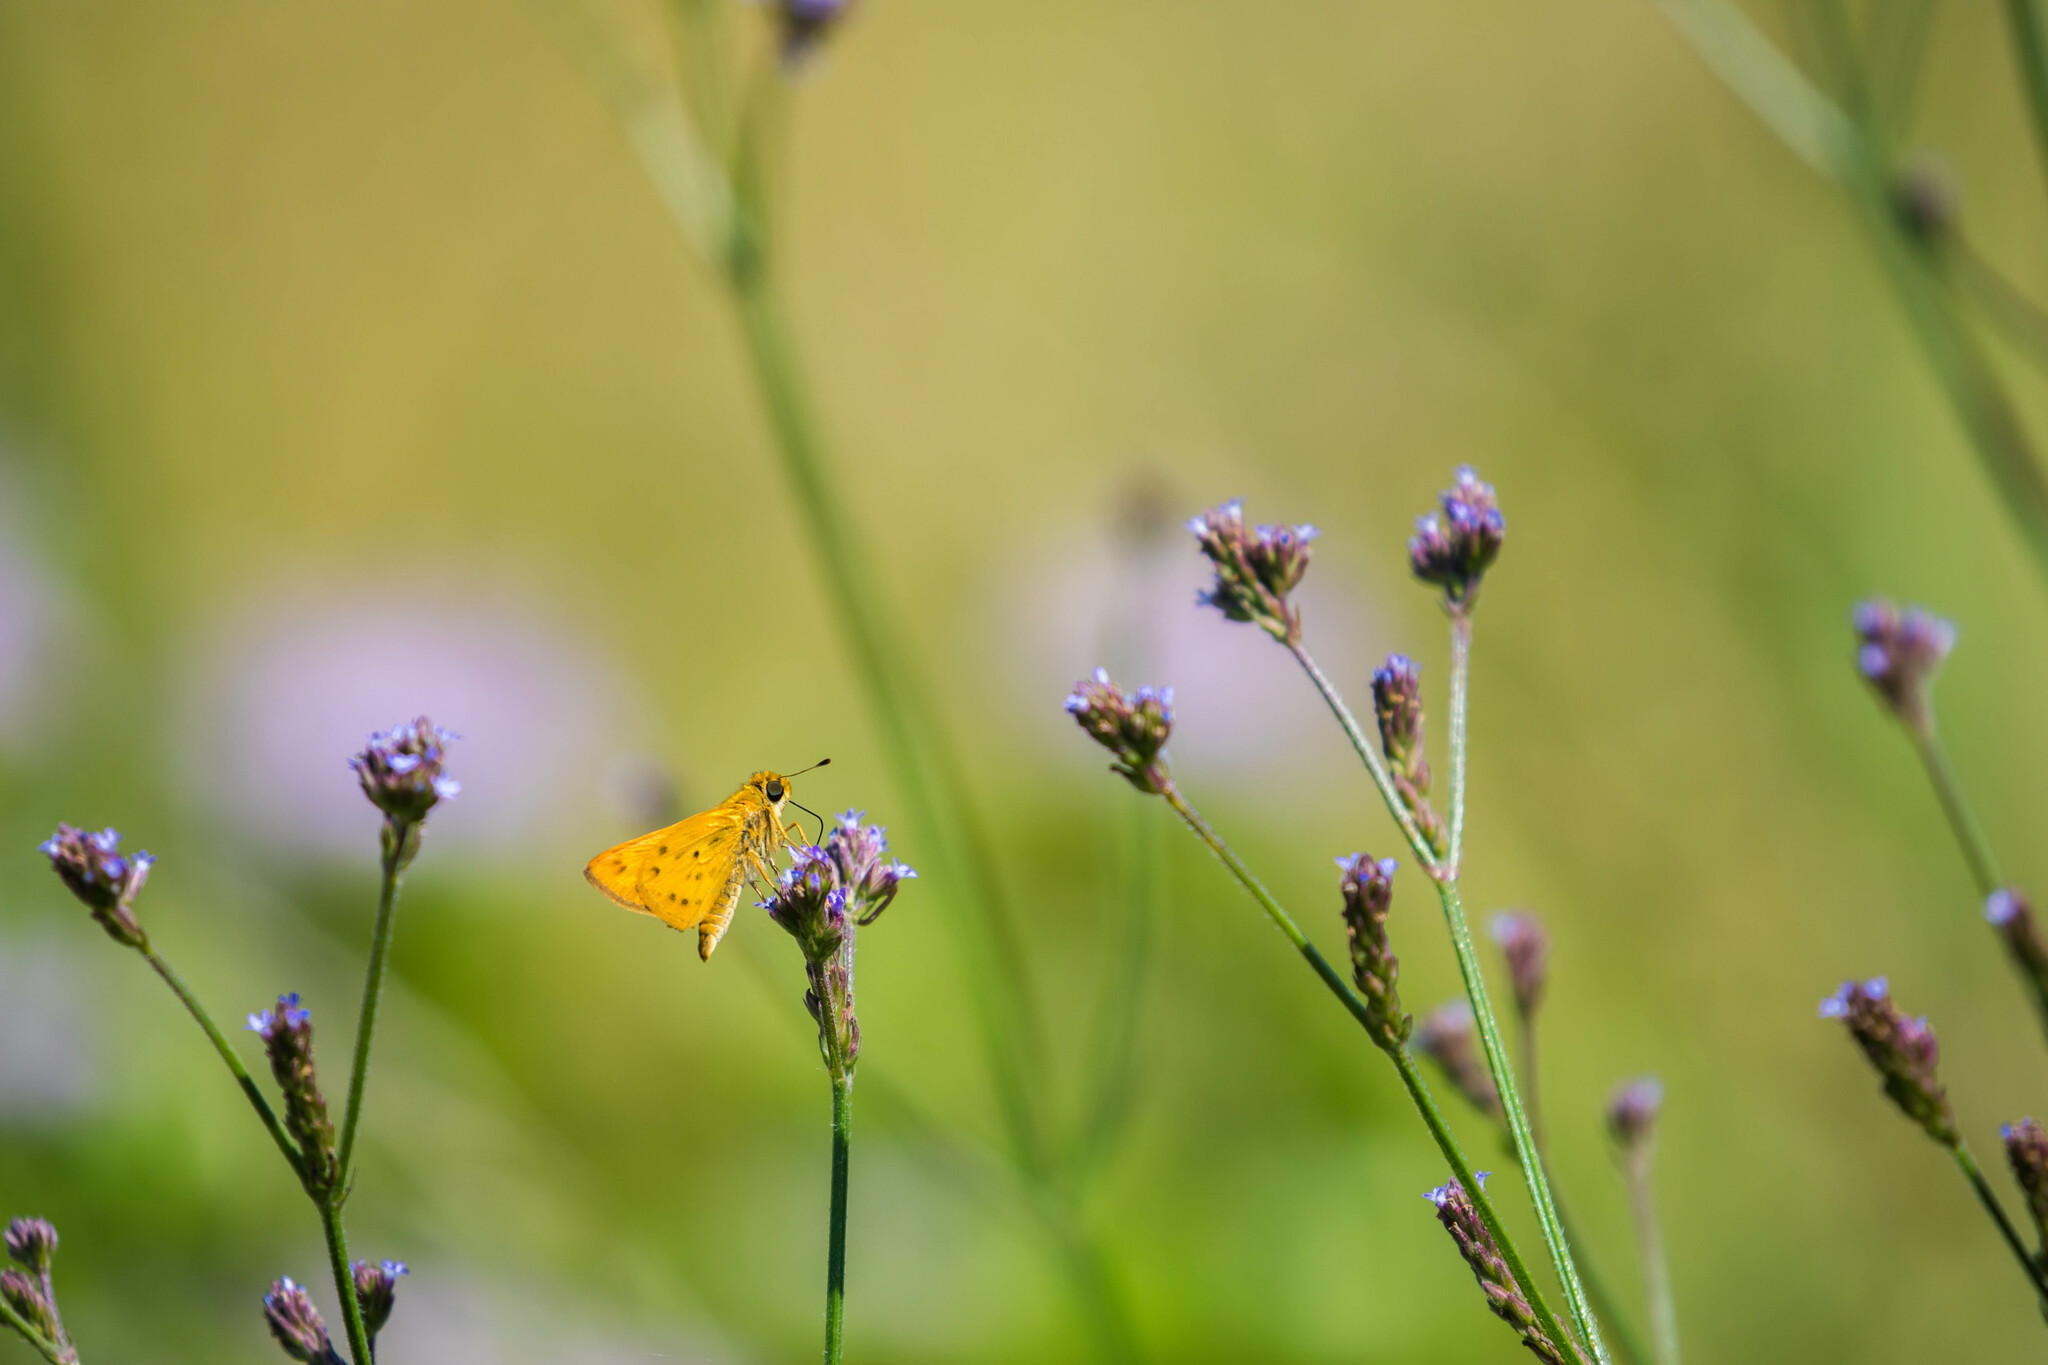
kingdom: Animalia
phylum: Arthropoda
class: Insecta
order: Lepidoptera
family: Hesperiidae
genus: Hylephila
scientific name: Hylephila phyleus
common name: Fiery skipper
